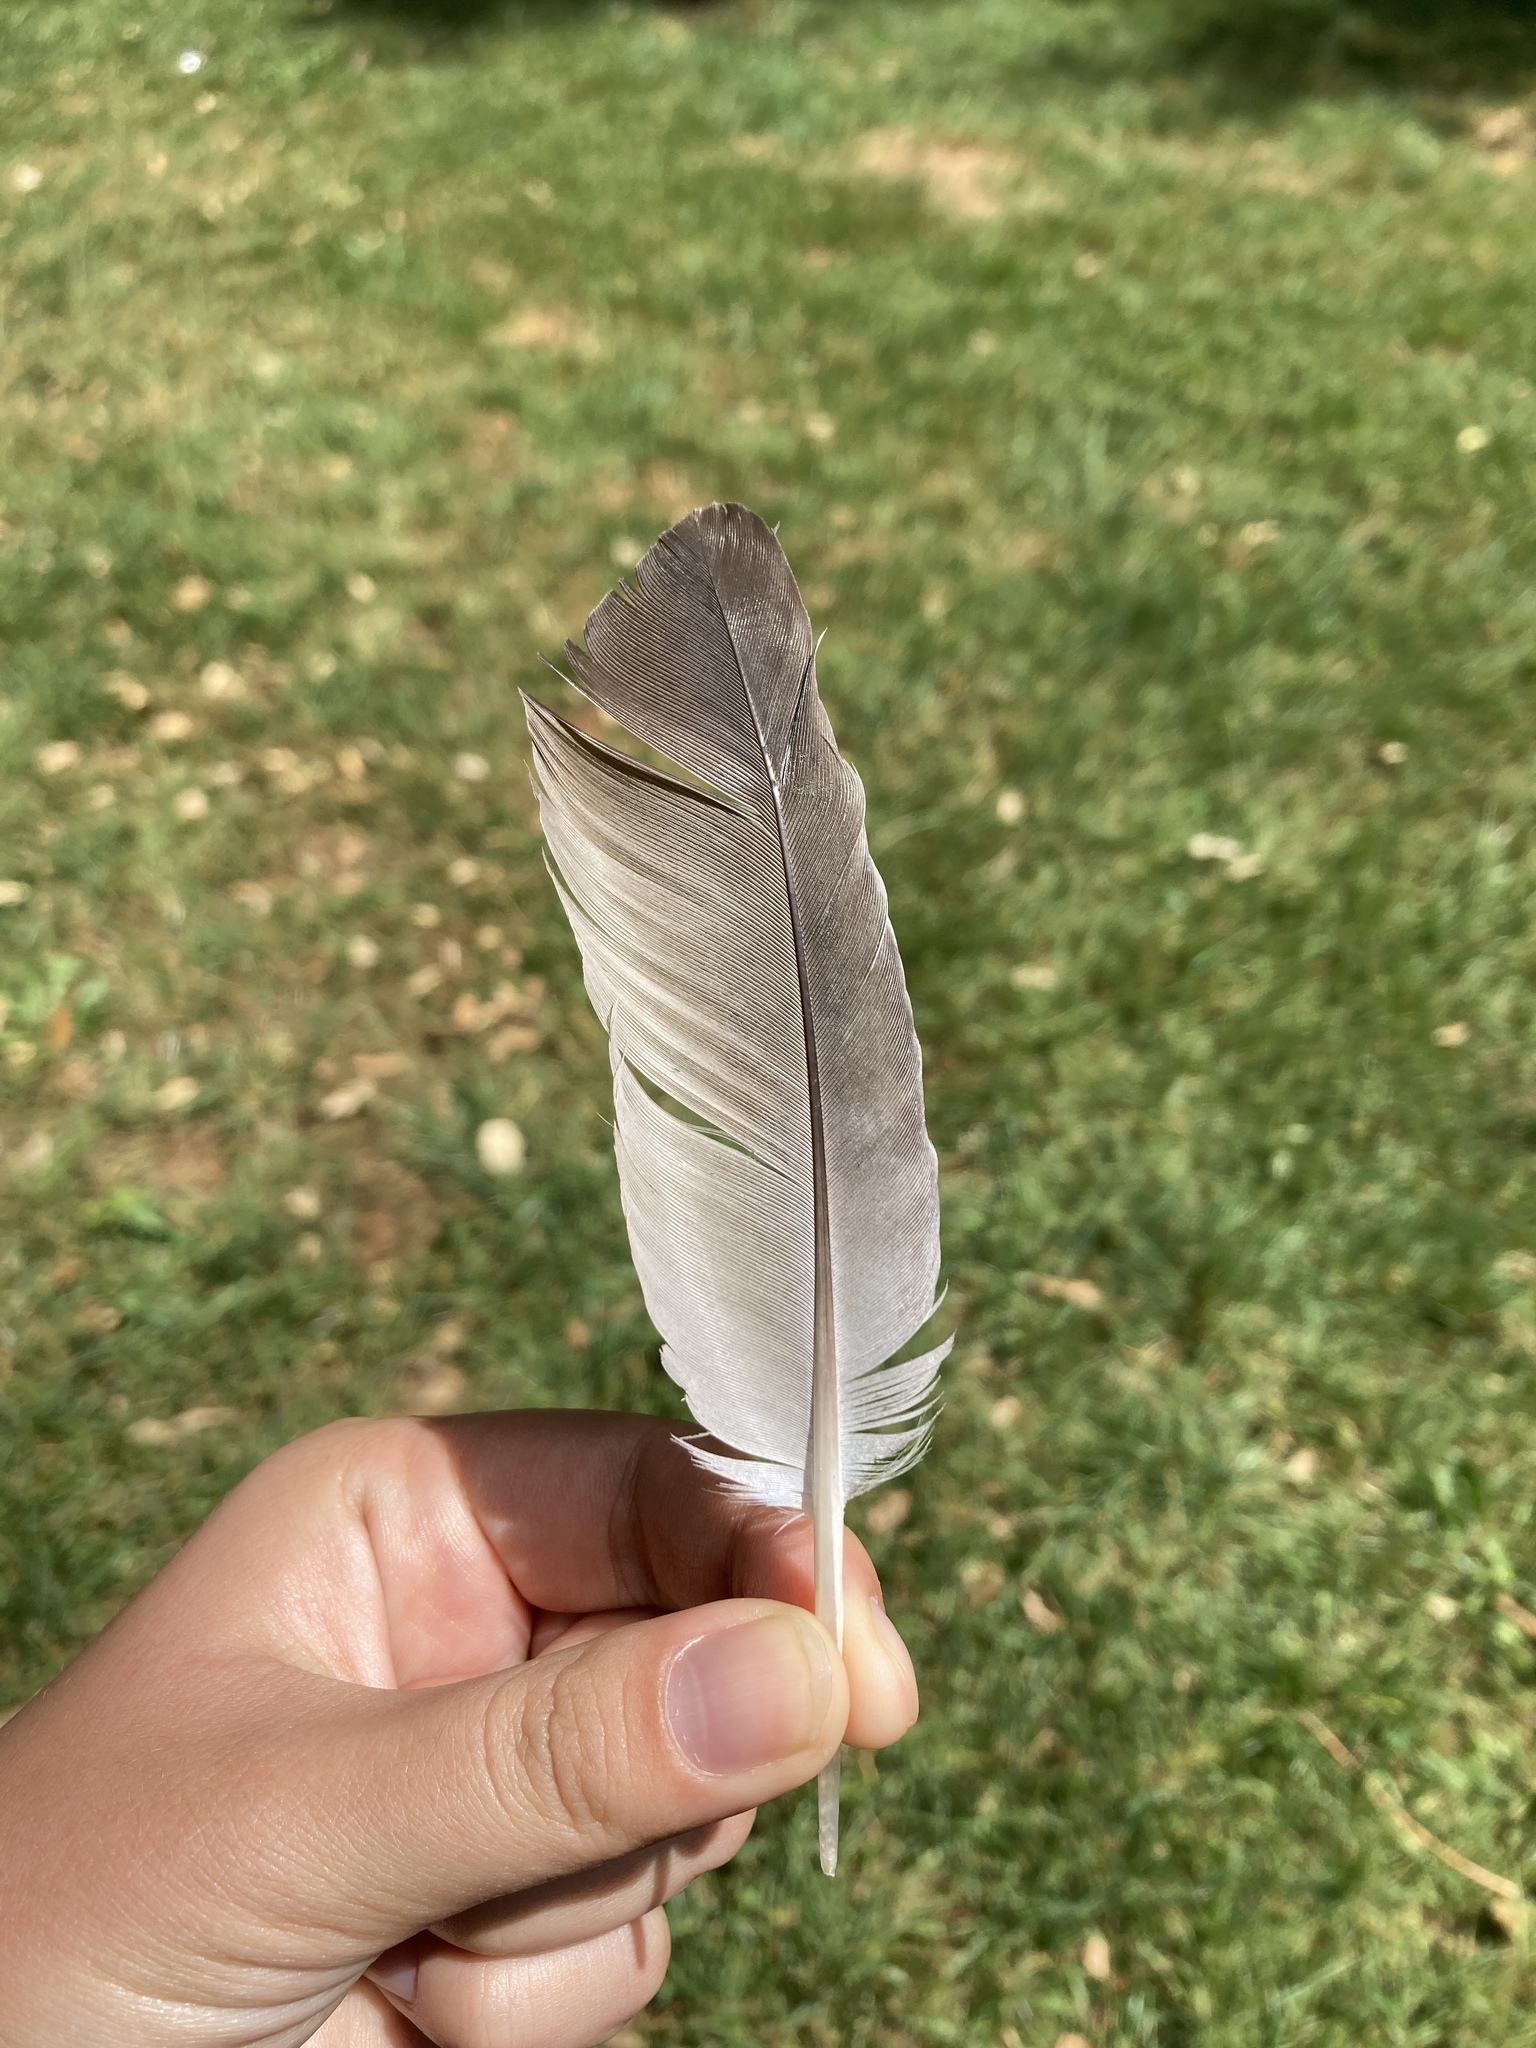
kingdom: Animalia
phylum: Chordata
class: Aves
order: Columbiformes
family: Columbidae
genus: Columba
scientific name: Columba livia
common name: Rock pigeon
